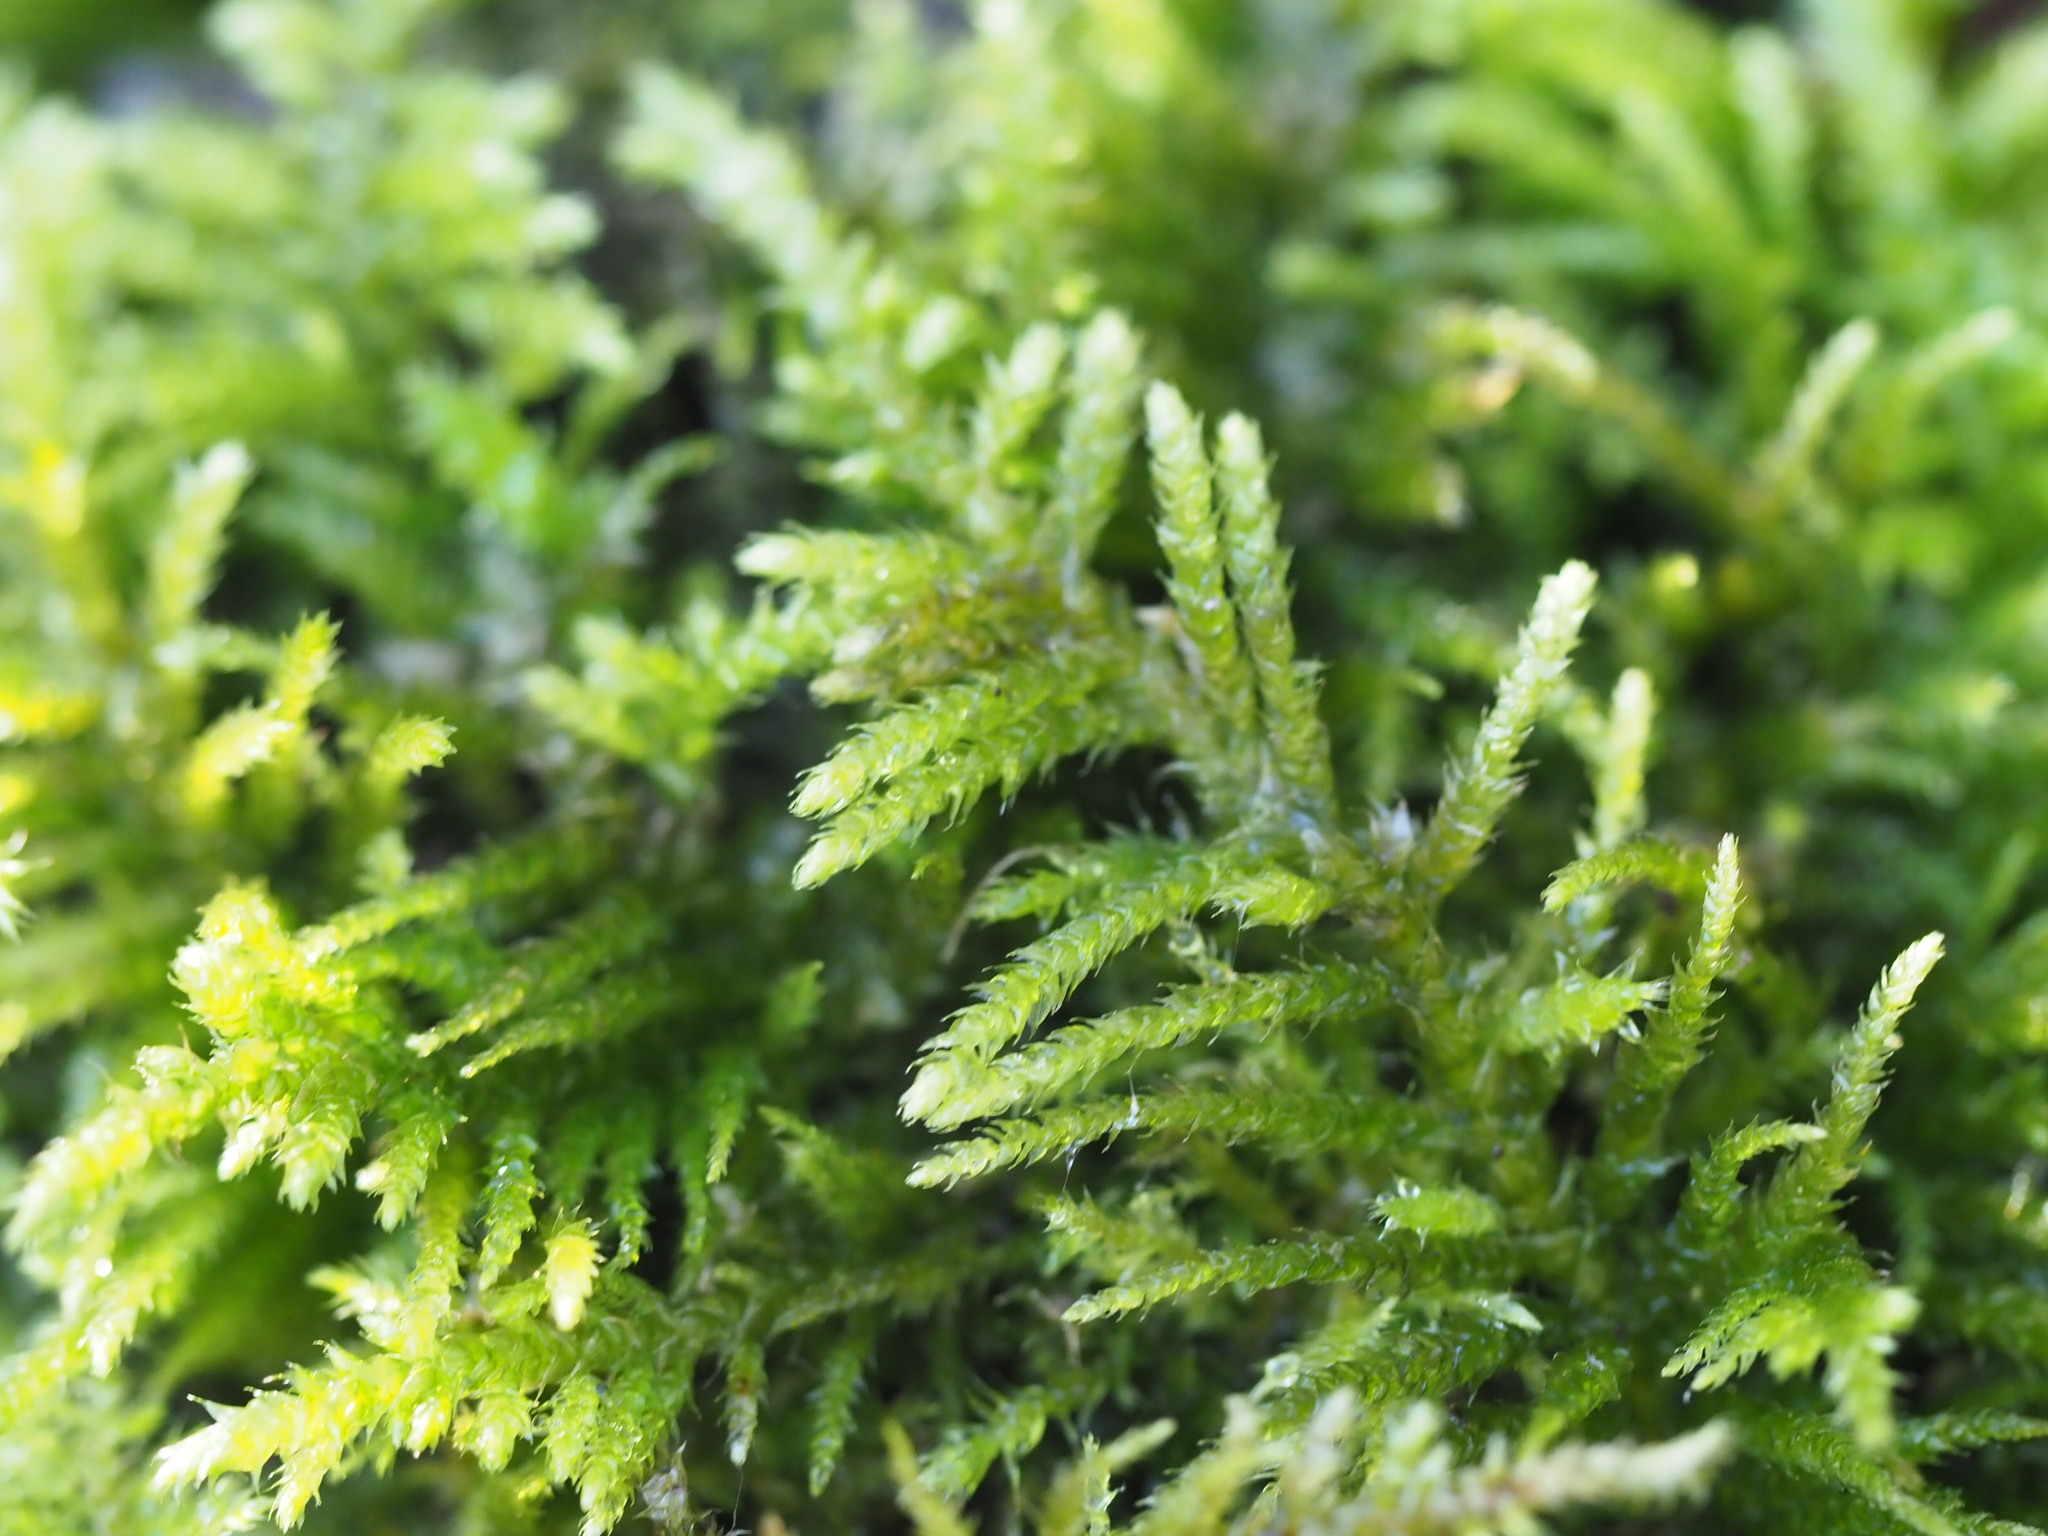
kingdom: Plantae
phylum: Bryophyta
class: Bryopsida
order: Hypnales
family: Brachytheciaceae
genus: Kindbergia
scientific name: Kindbergia oregana
